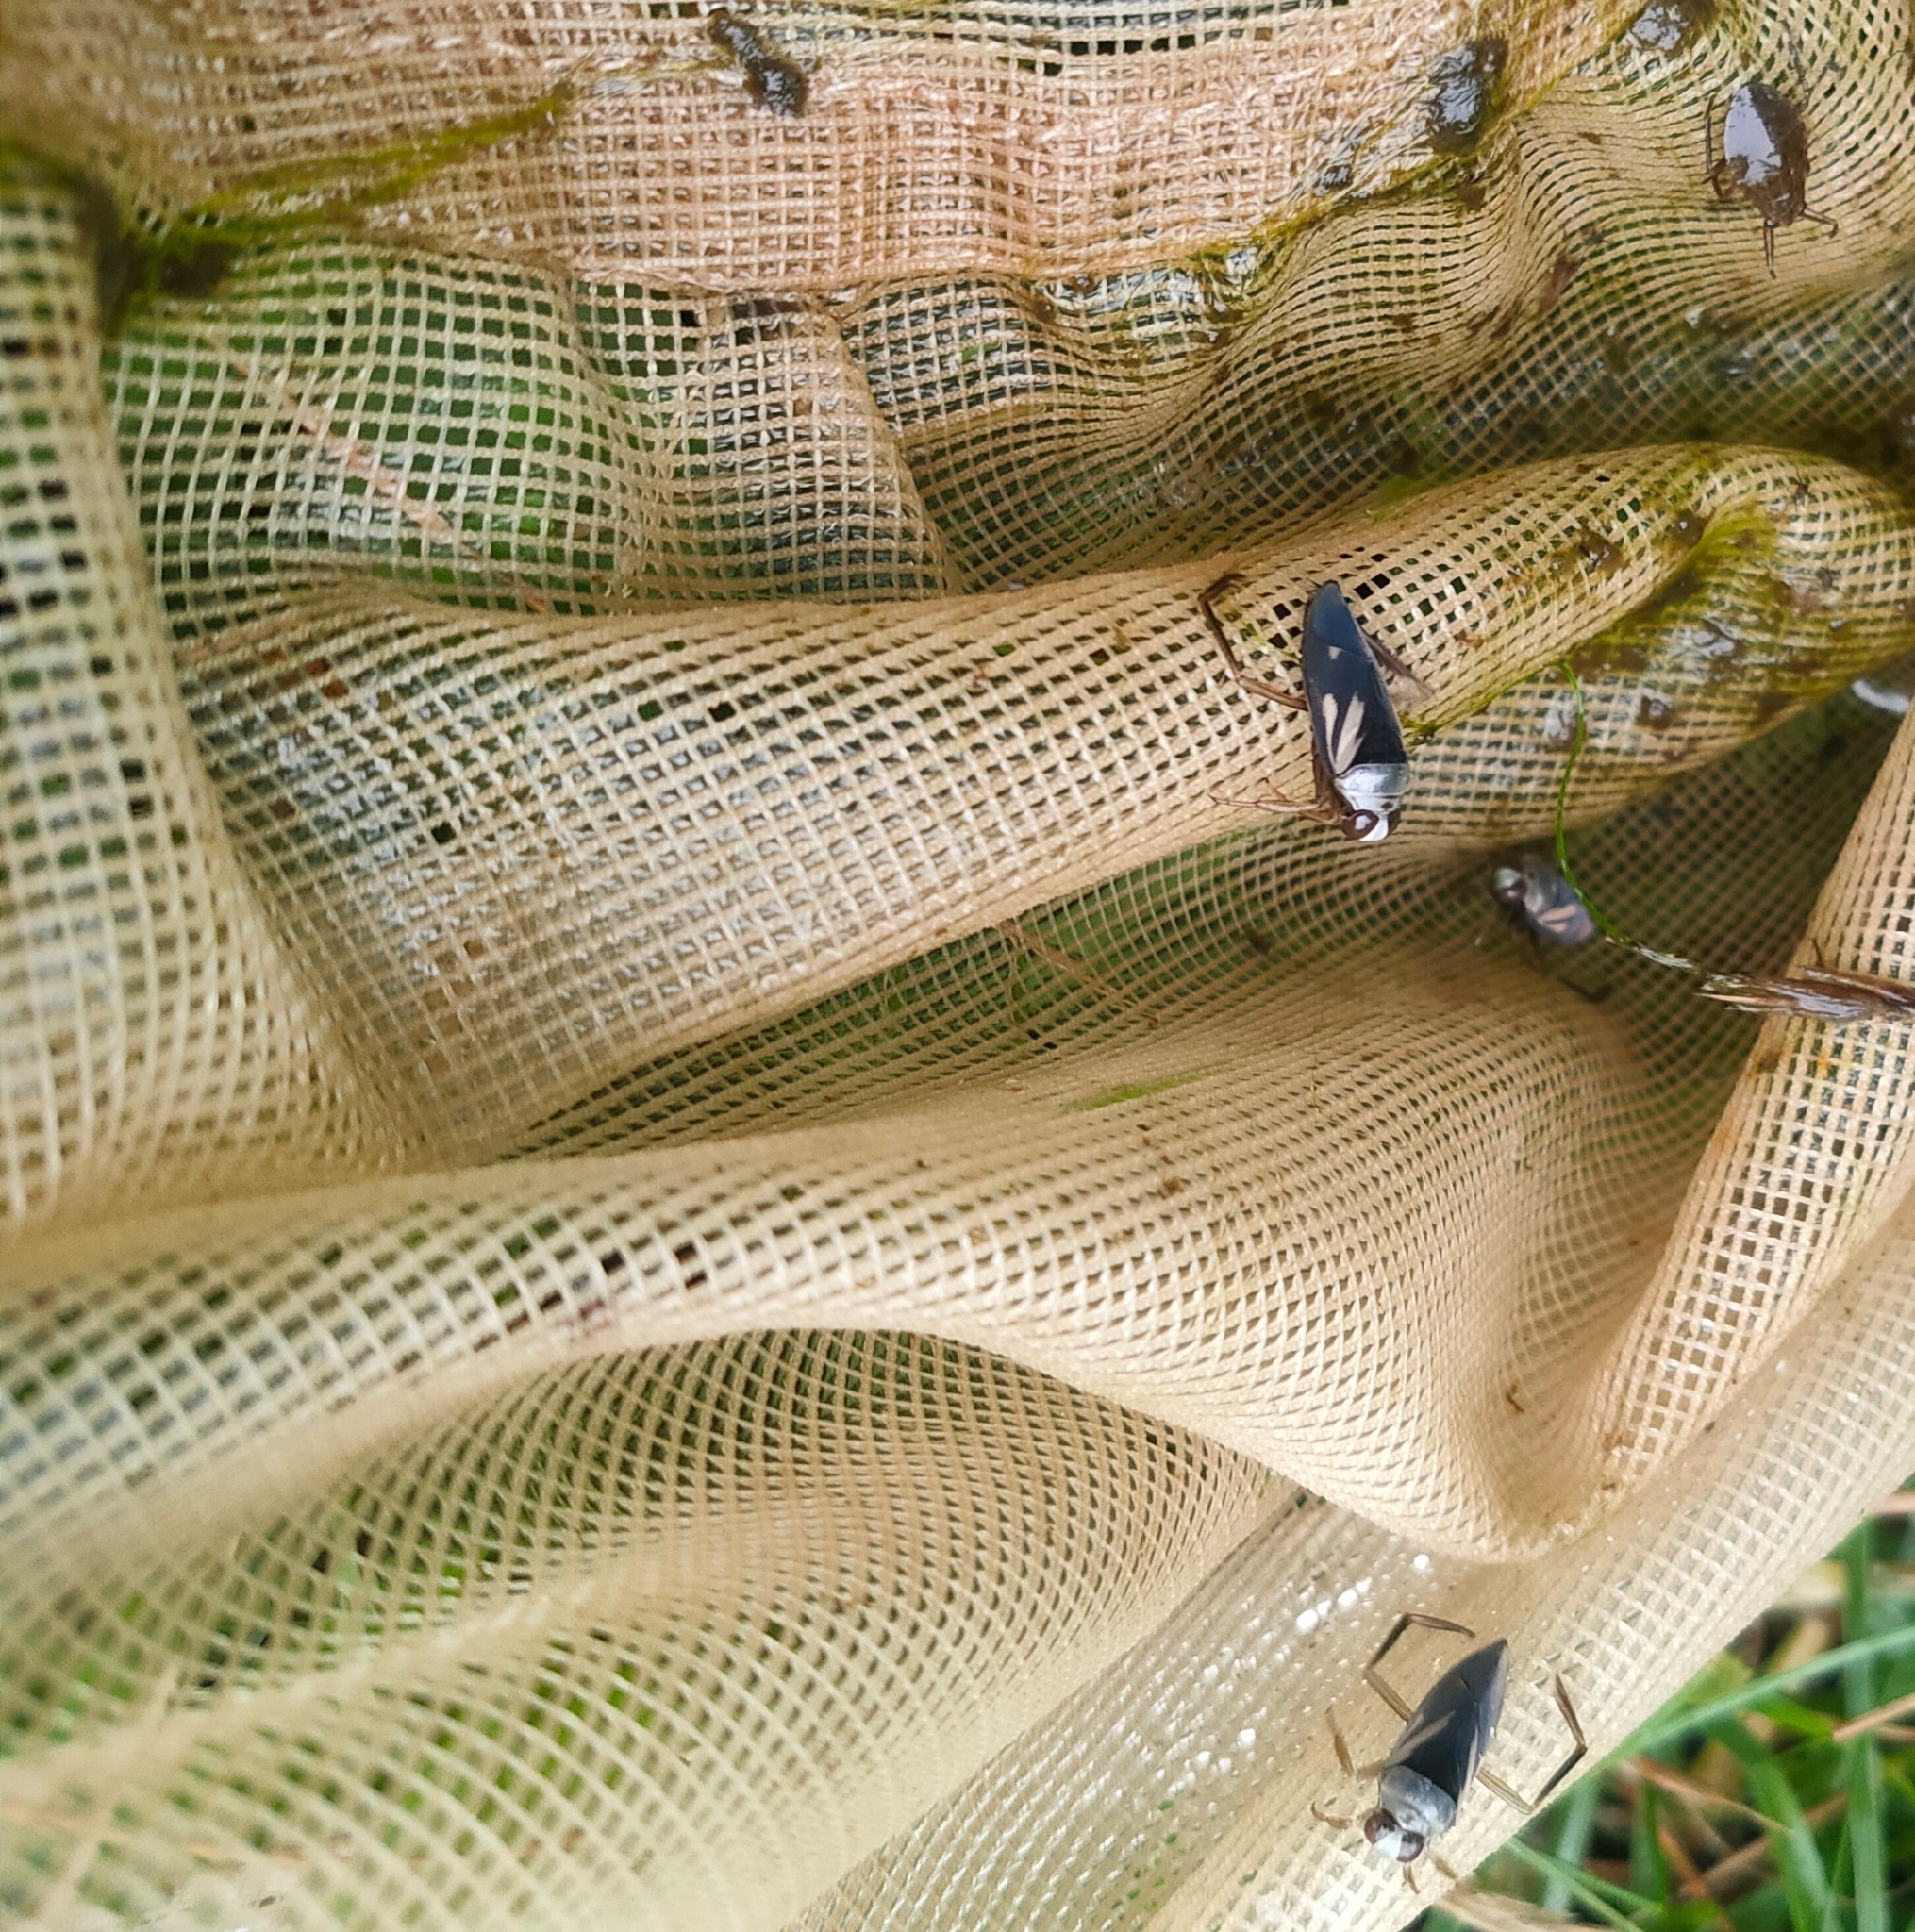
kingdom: Animalia
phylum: Arthropoda
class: Insecta
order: Hemiptera
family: Notonectidae
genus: Notonecta
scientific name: Notonecta triguttata
